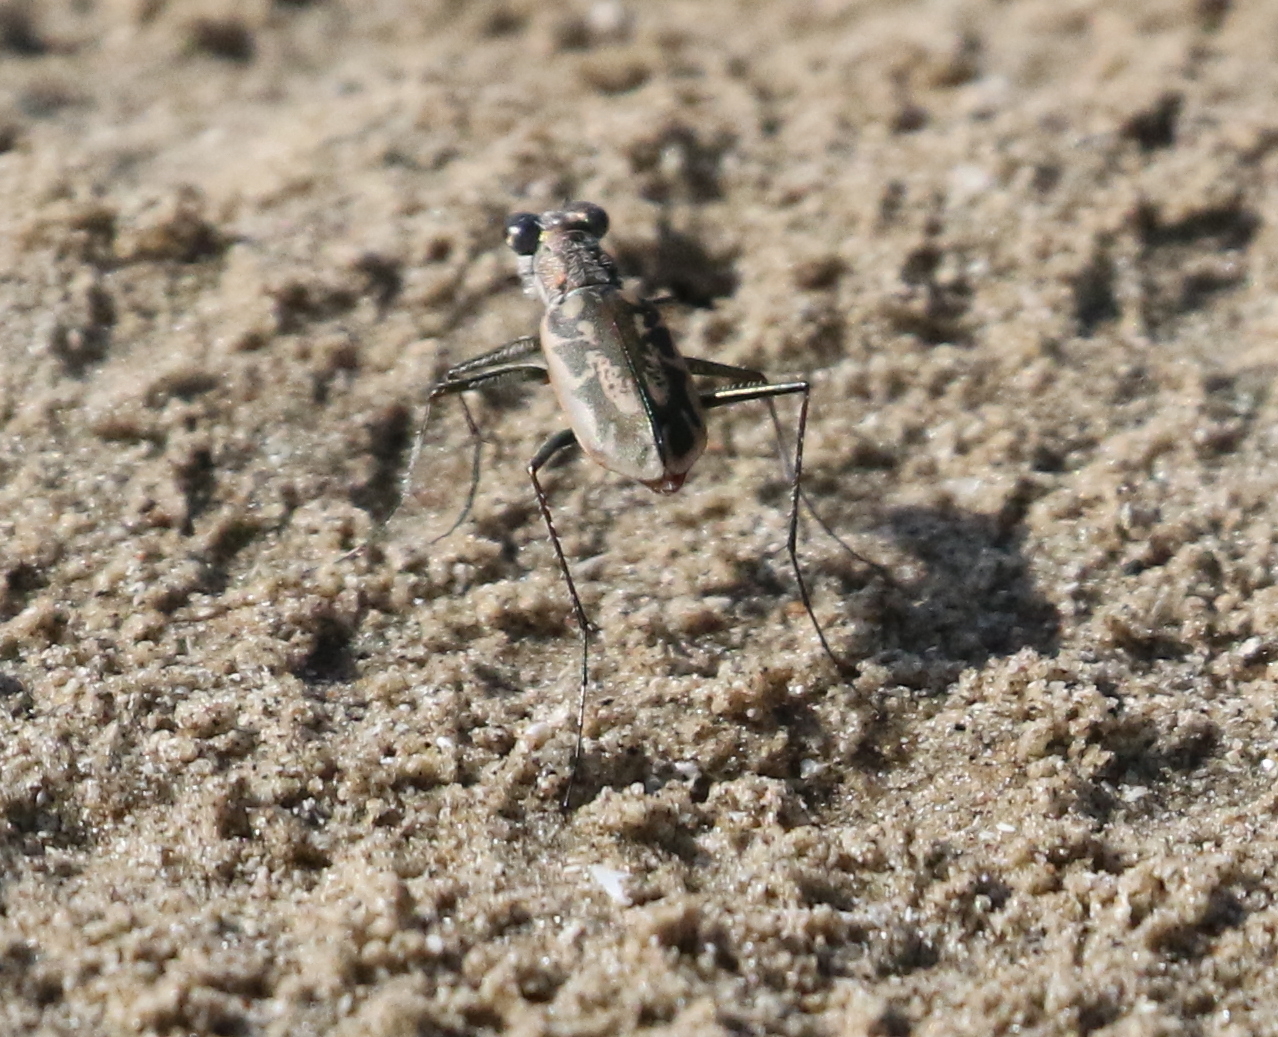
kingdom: Animalia
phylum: Arthropoda
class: Insecta
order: Coleoptera
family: Carabidae
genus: Ellipsoptera
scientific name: Ellipsoptera hamata
